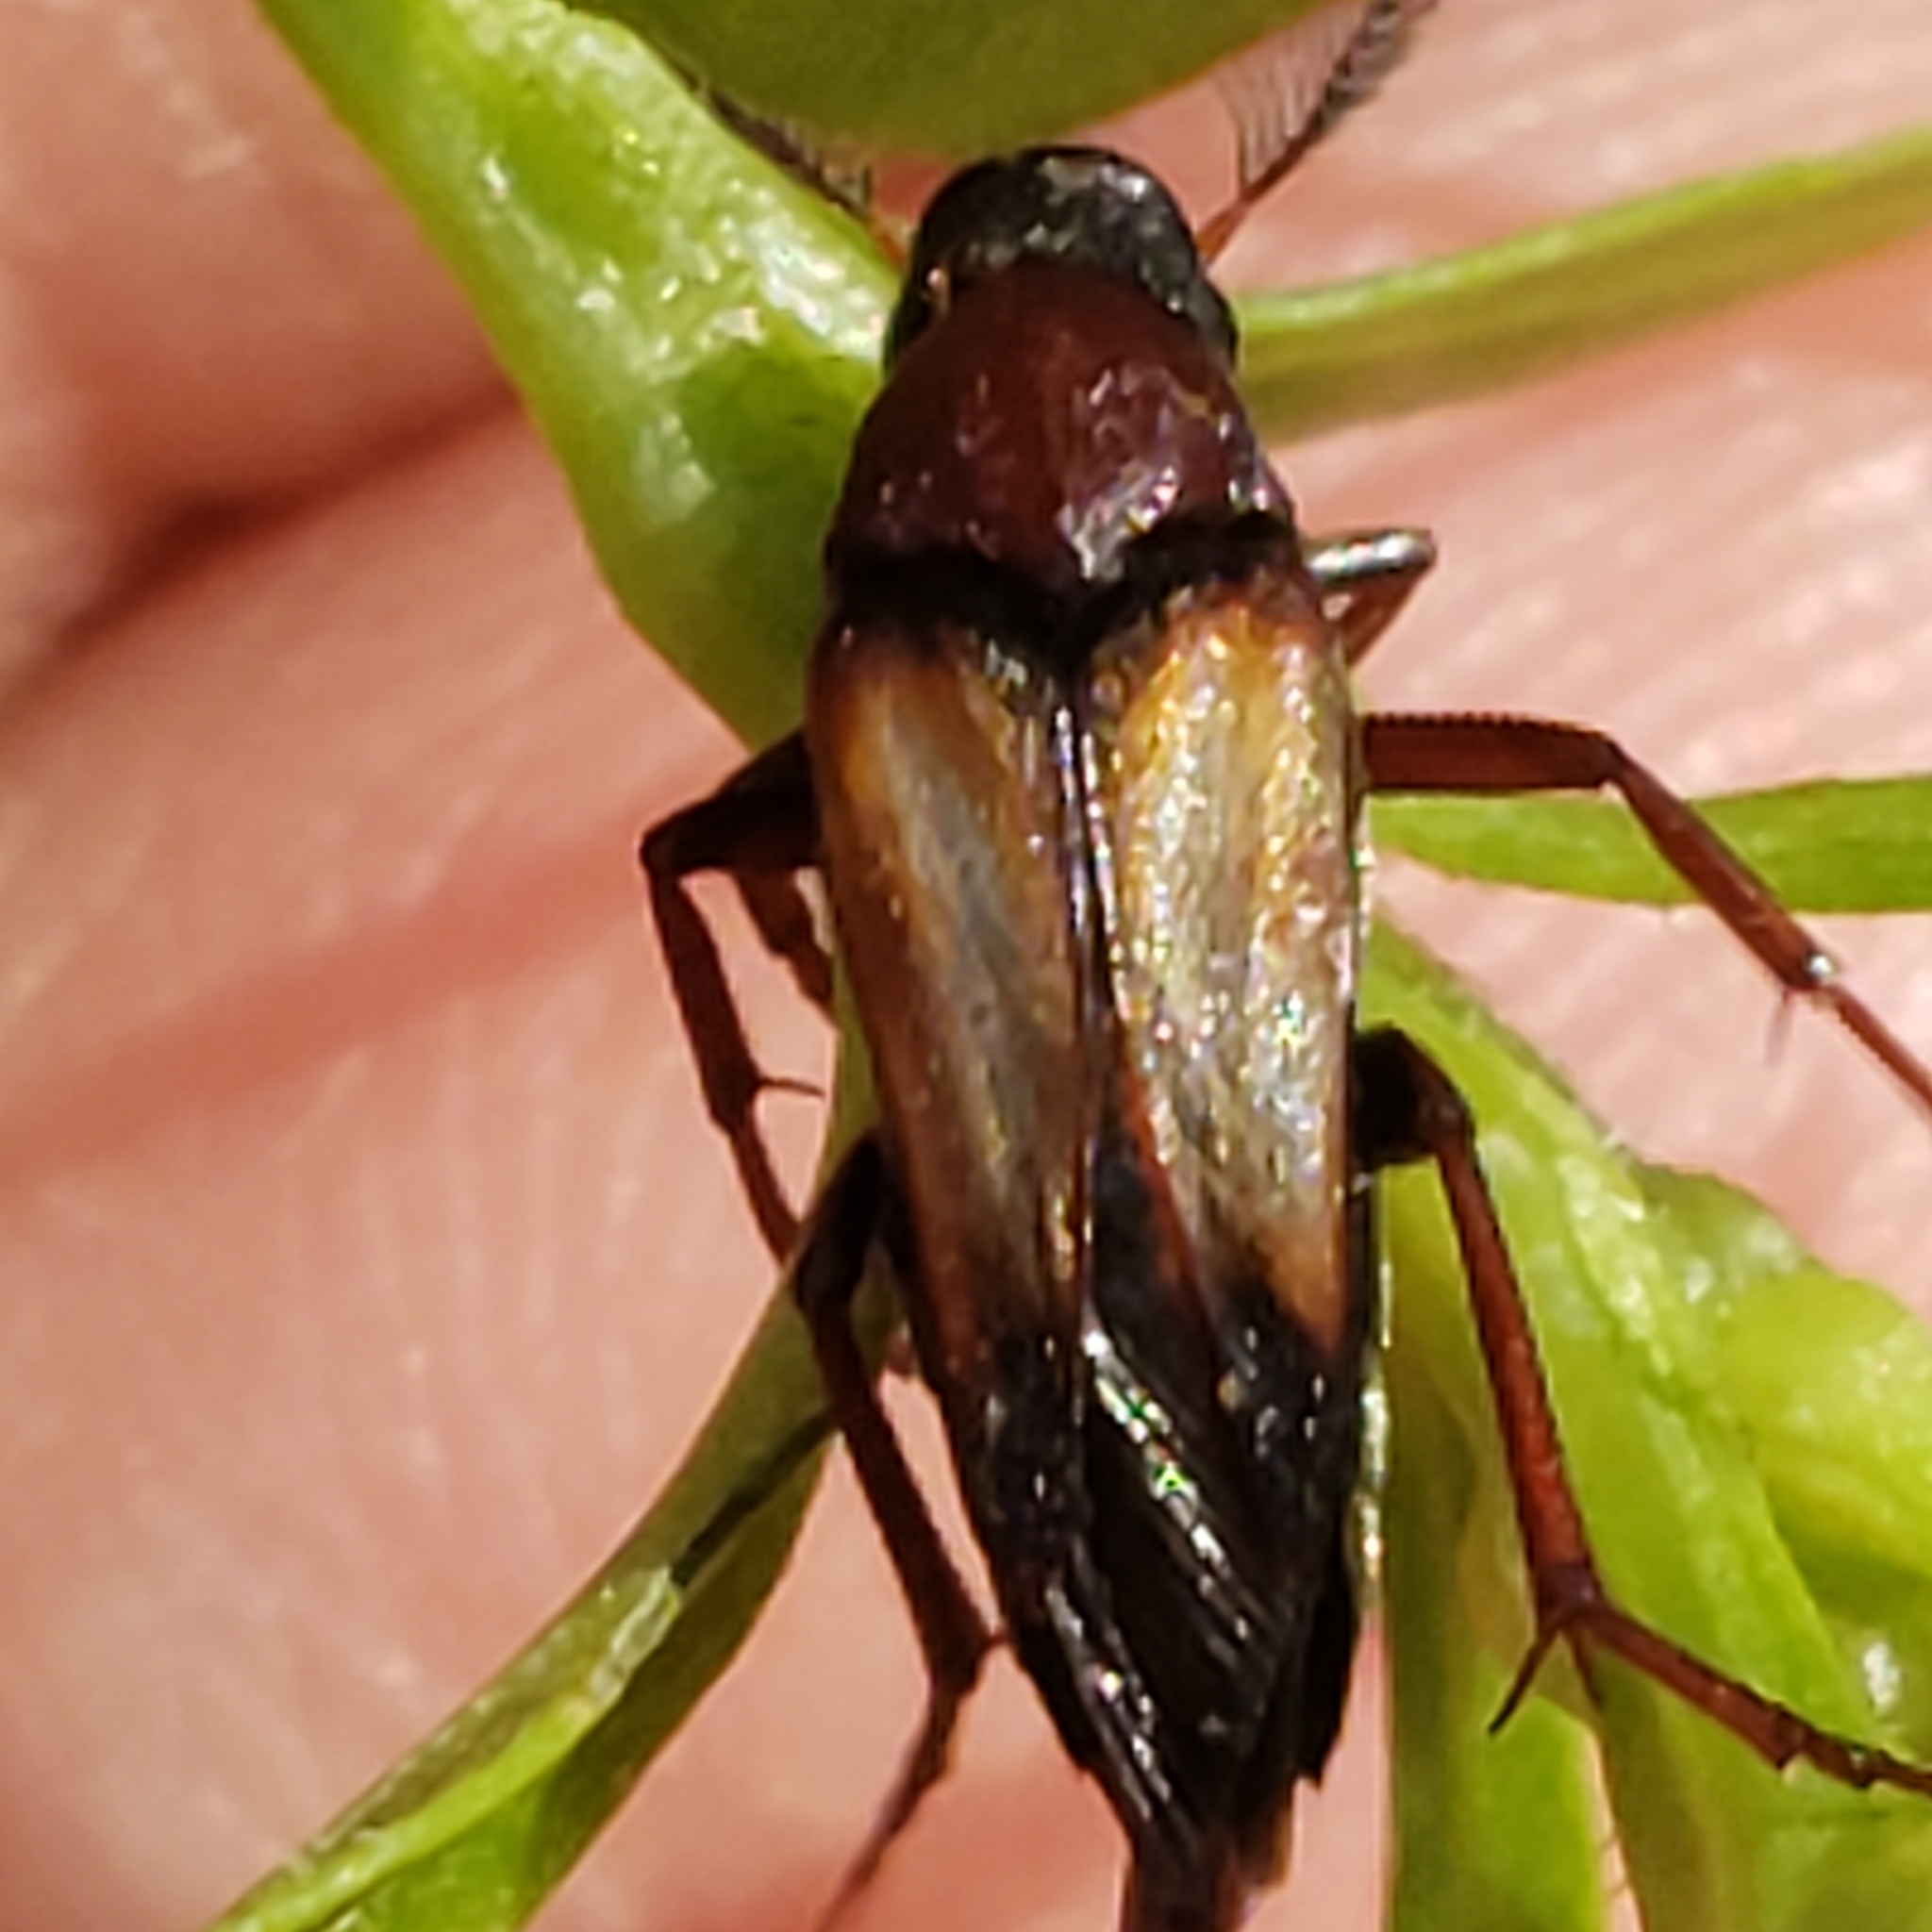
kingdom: Animalia
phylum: Arthropoda
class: Insecta
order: Coleoptera
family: Ripiphoridae
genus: Macrosiagon
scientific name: Macrosiagon pectinata
